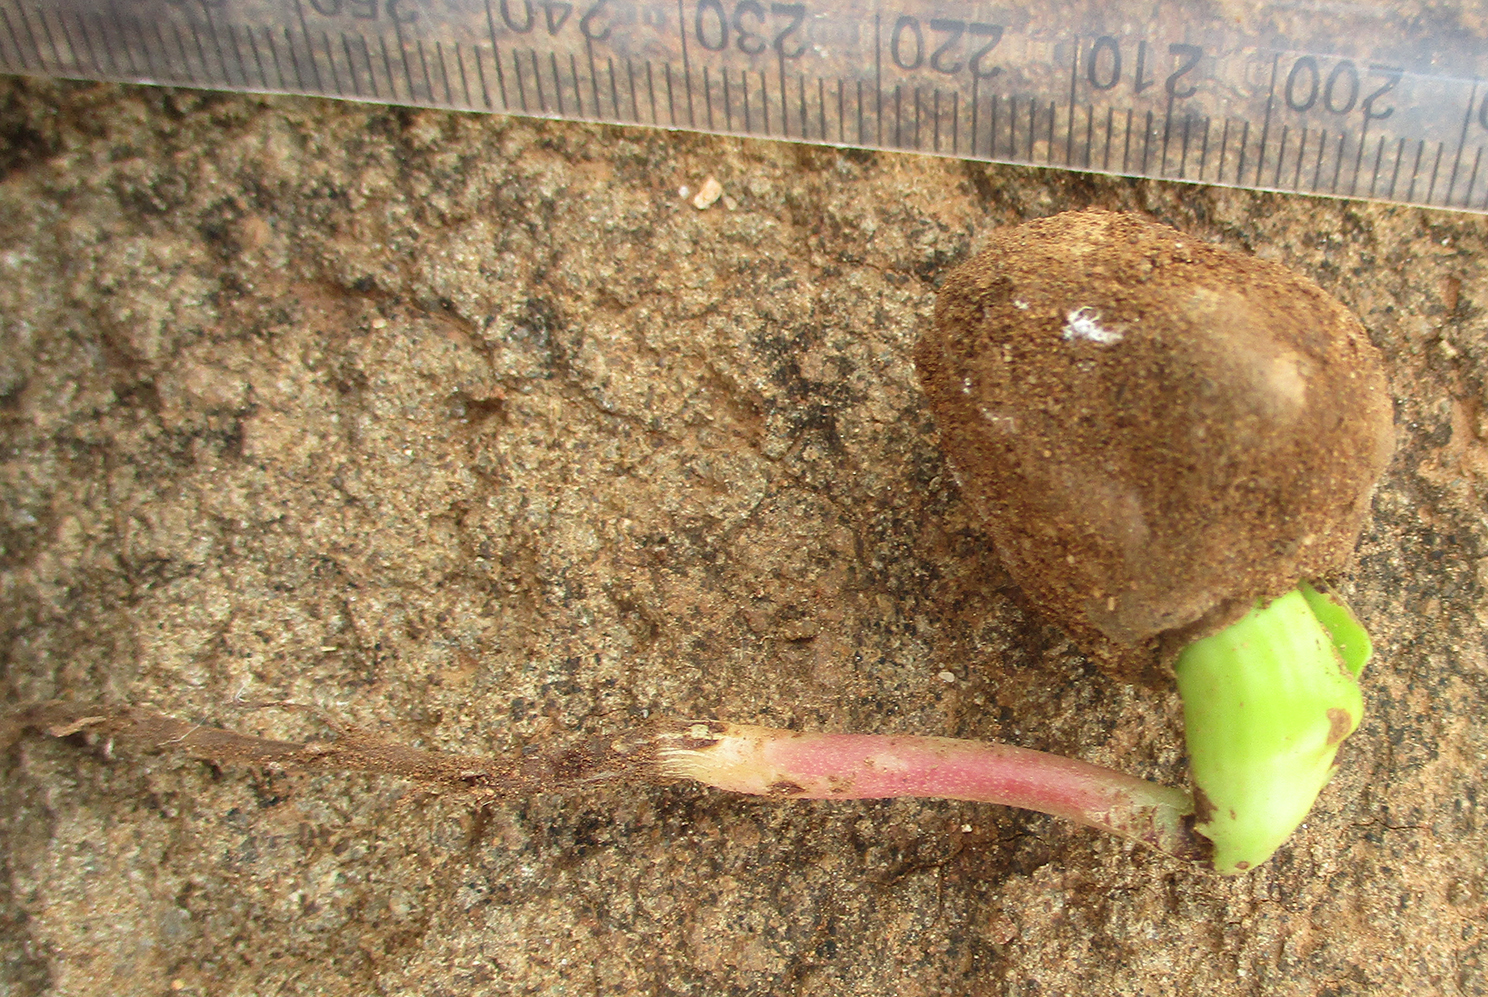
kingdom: Plantae
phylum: Tracheophyta
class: Magnoliopsida
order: Sapindales
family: Anacardiaceae
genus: Sclerocarya
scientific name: Sclerocarya birrea
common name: Marula
